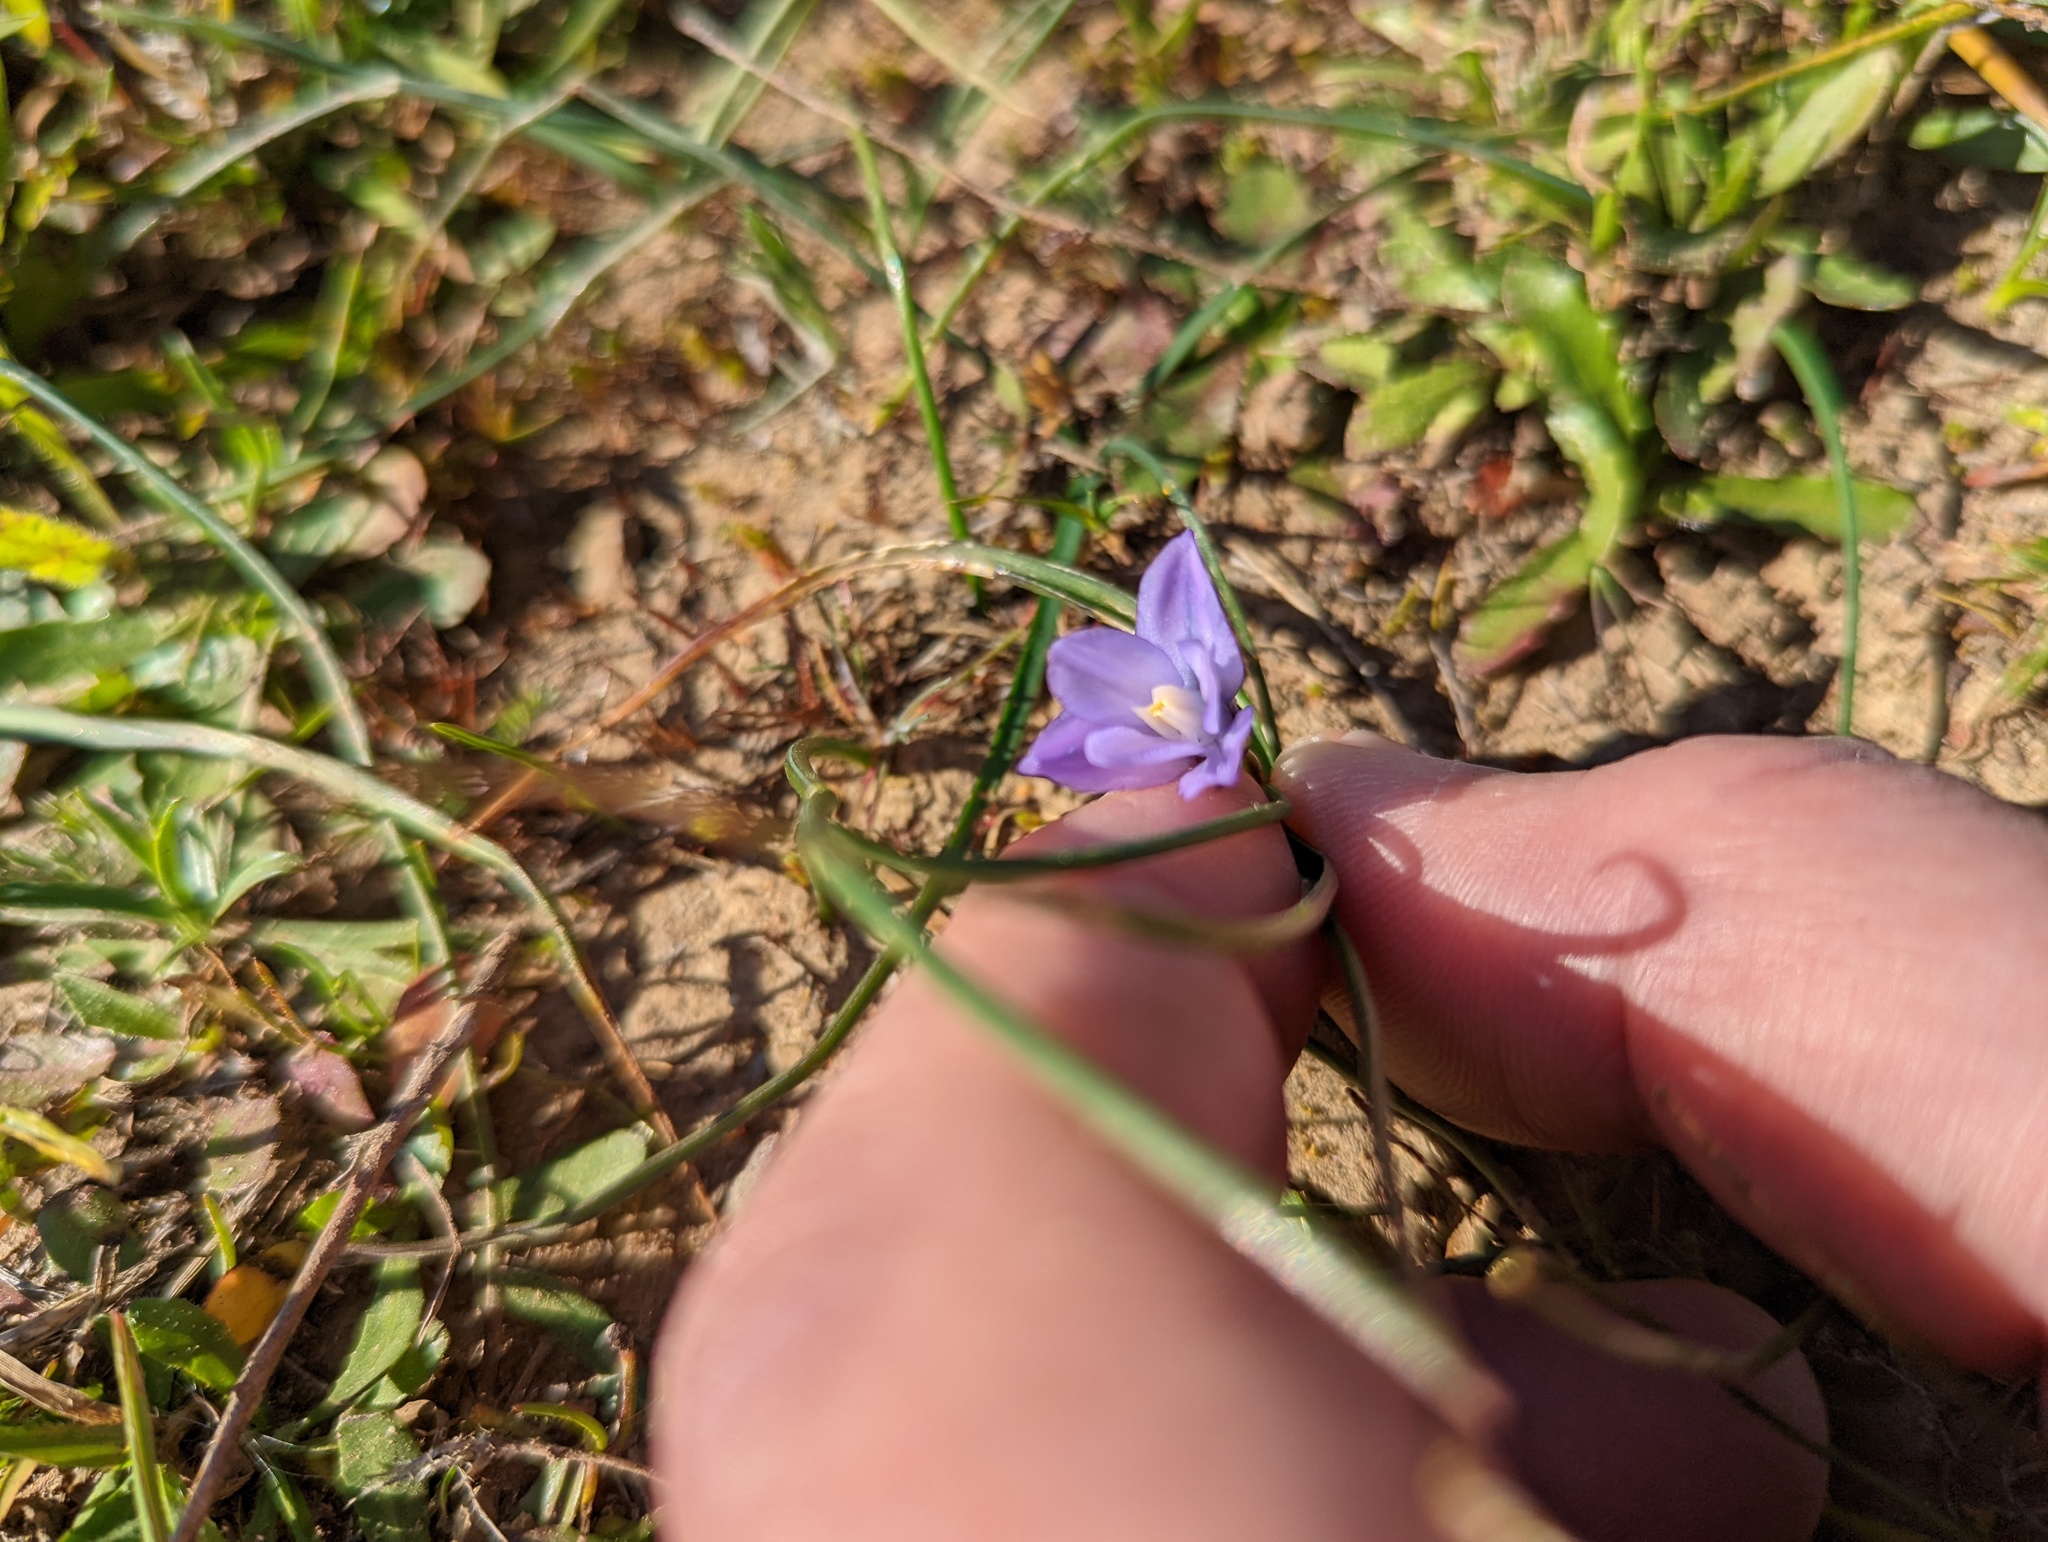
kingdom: Plantae
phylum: Tracheophyta
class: Liliopsida
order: Asparagales
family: Asparagaceae
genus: Dipterostemon
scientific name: Dipterostemon capitatus
